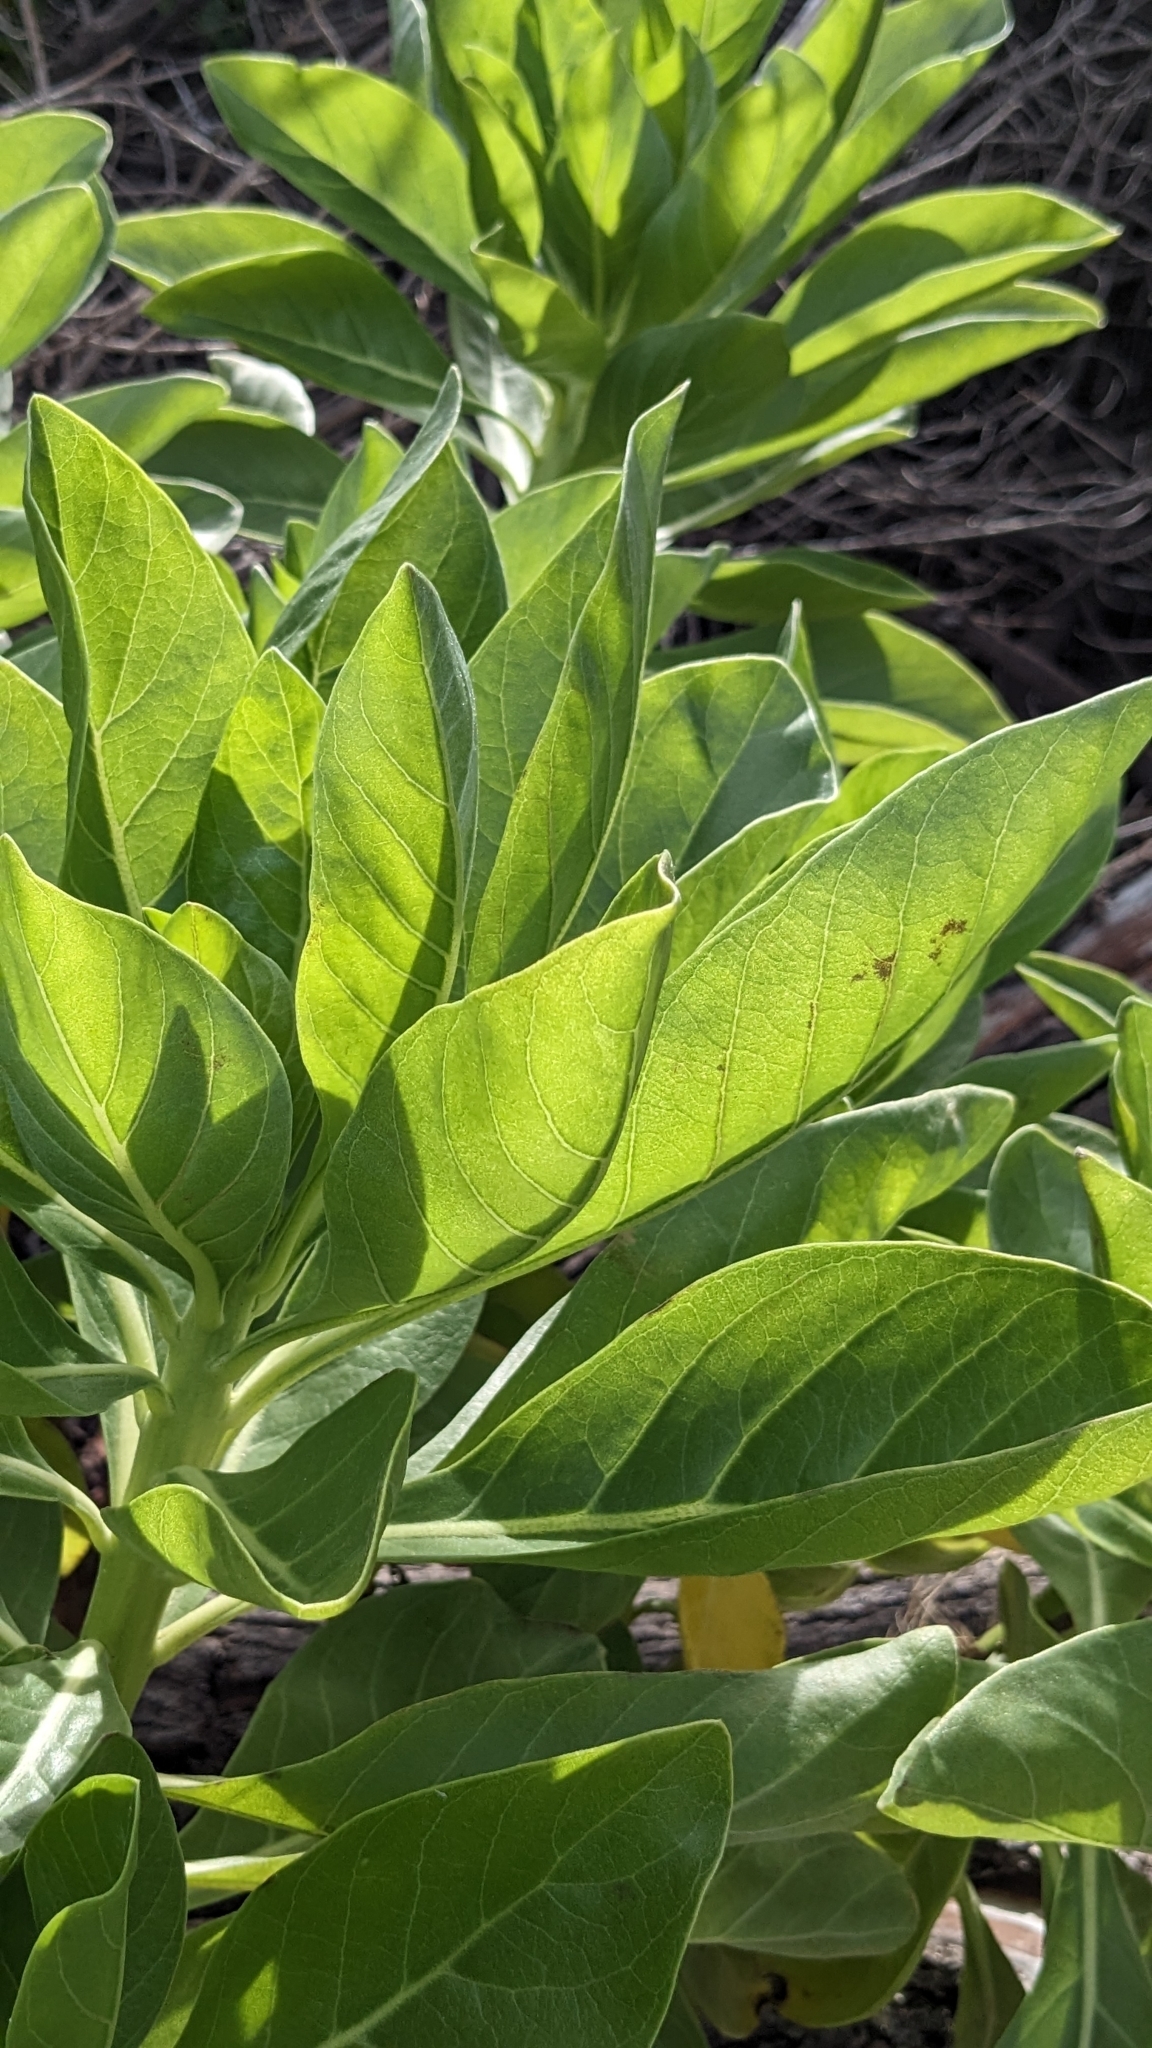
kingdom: Plantae
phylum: Tracheophyta
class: Magnoliopsida
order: Boraginales
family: Heliotropiaceae
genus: Heliotropium
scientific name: Heliotropium velutinum
